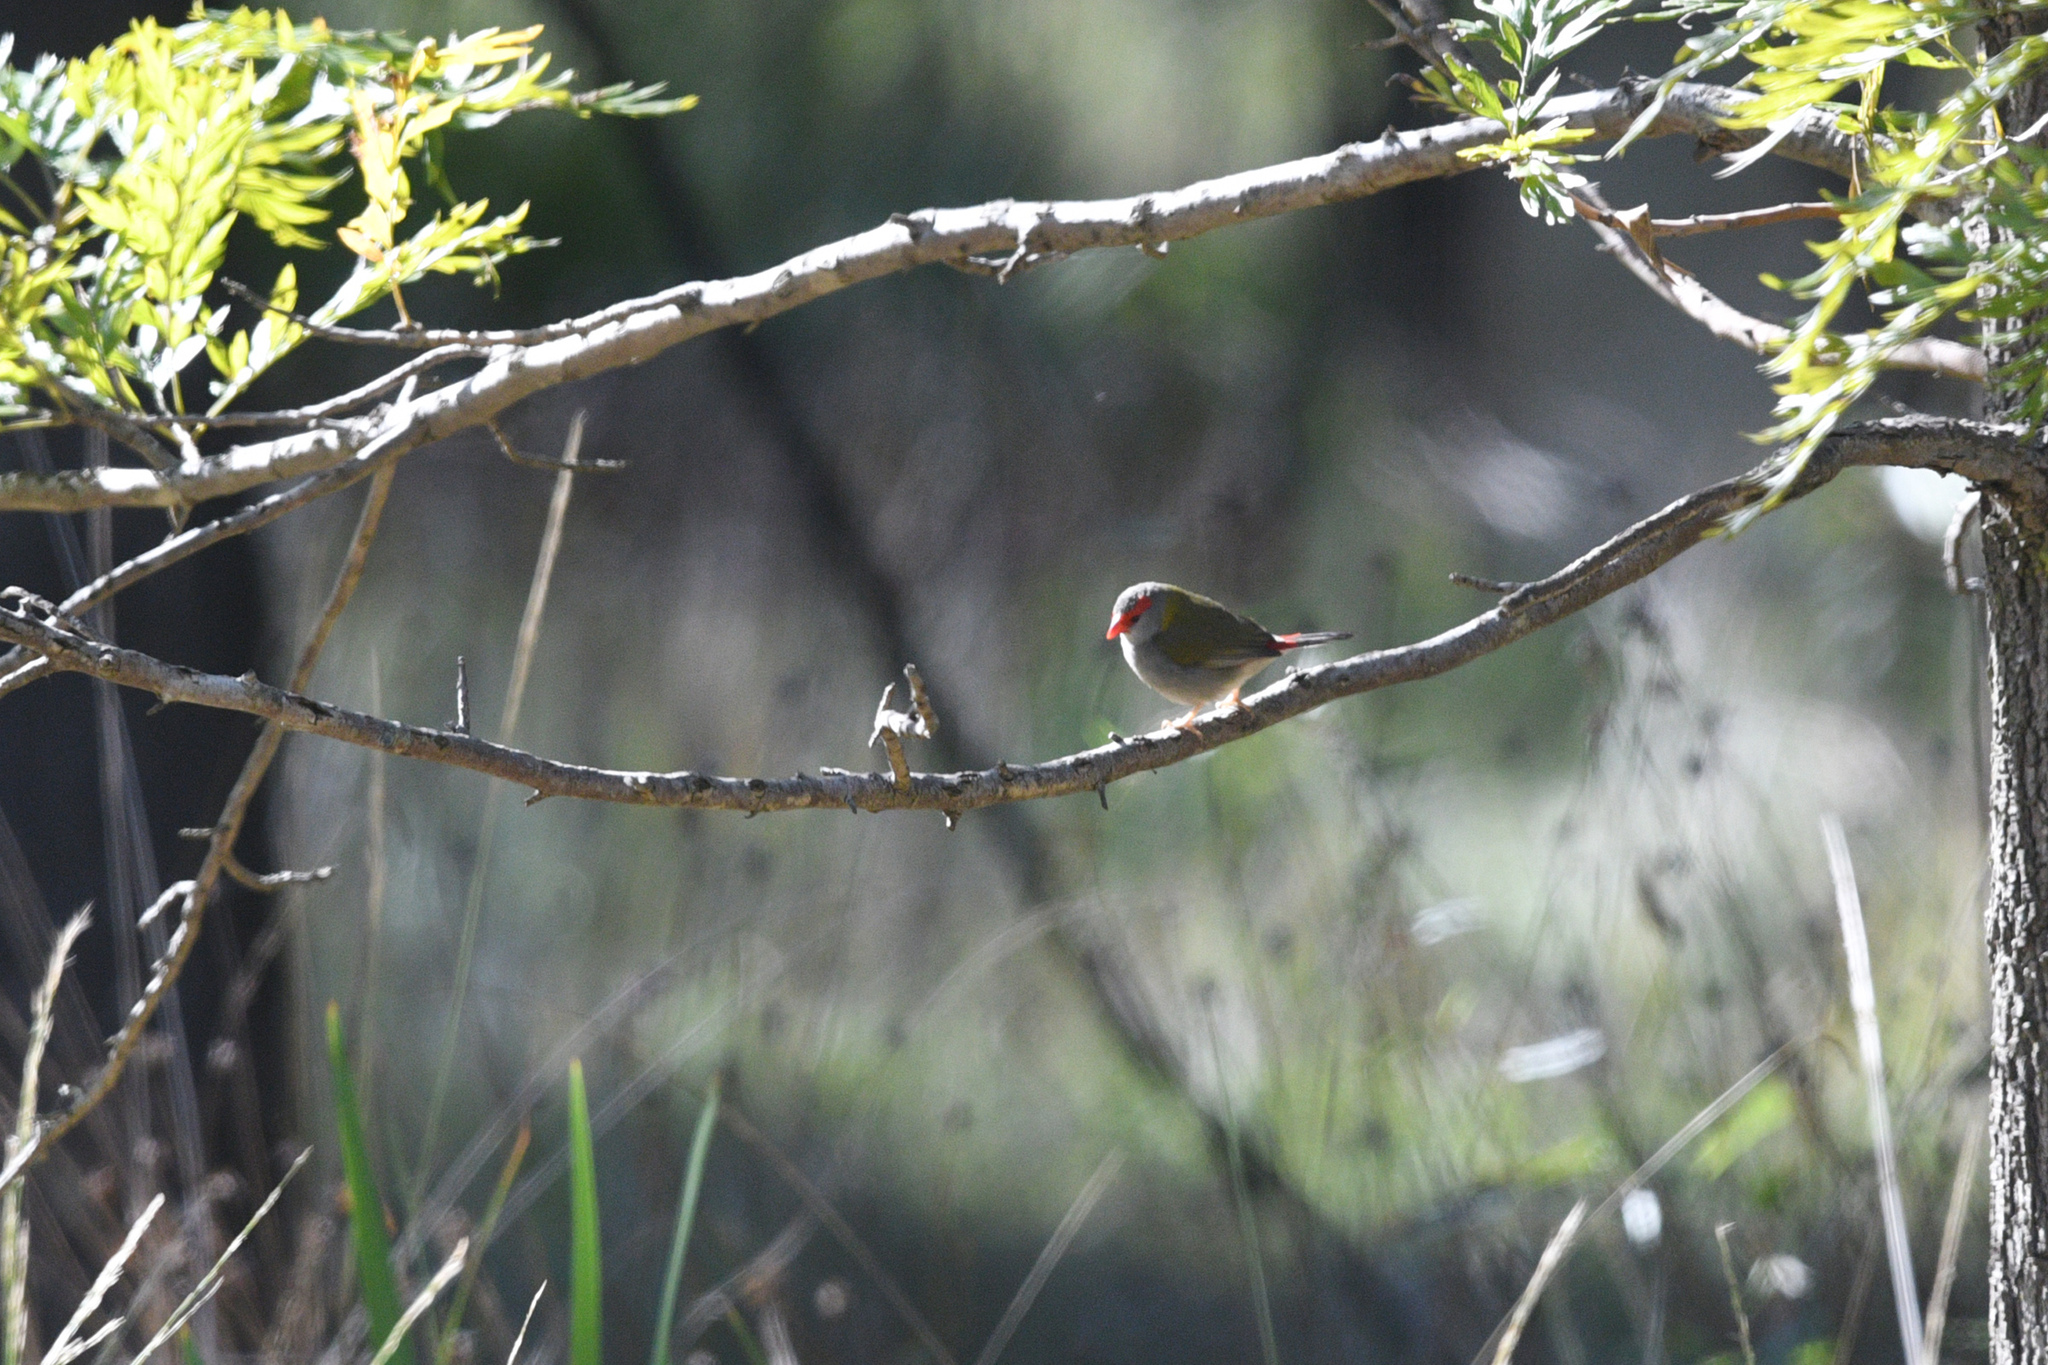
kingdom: Animalia
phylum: Chordata
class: Aves
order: Passeriformes
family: Estrildidae
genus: Neochmia
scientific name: Neochmia temporalis
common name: Red-browed finch
